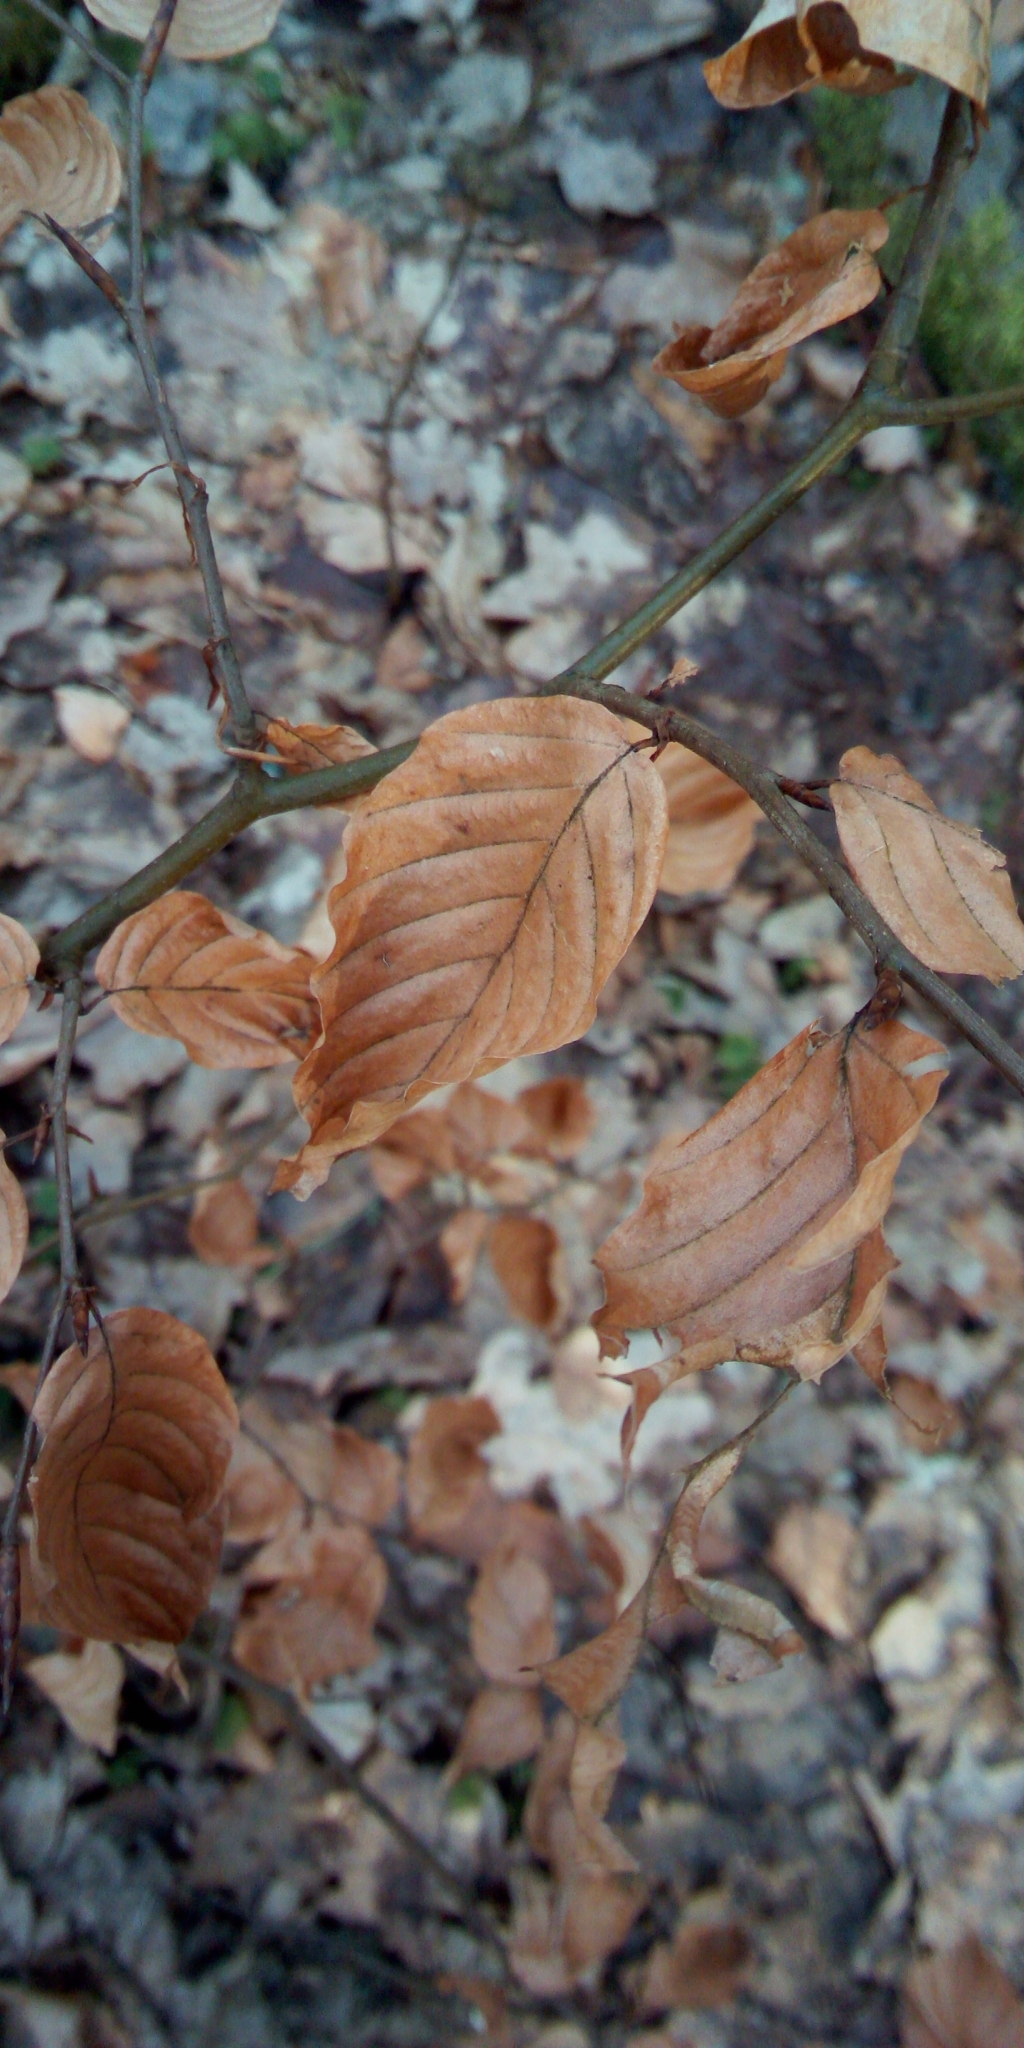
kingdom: Plantae
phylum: Tracheophyta
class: Magnoliopsida
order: Fagales
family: Fagaceae
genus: Fagus
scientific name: Fagus sylvatica
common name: Beech
